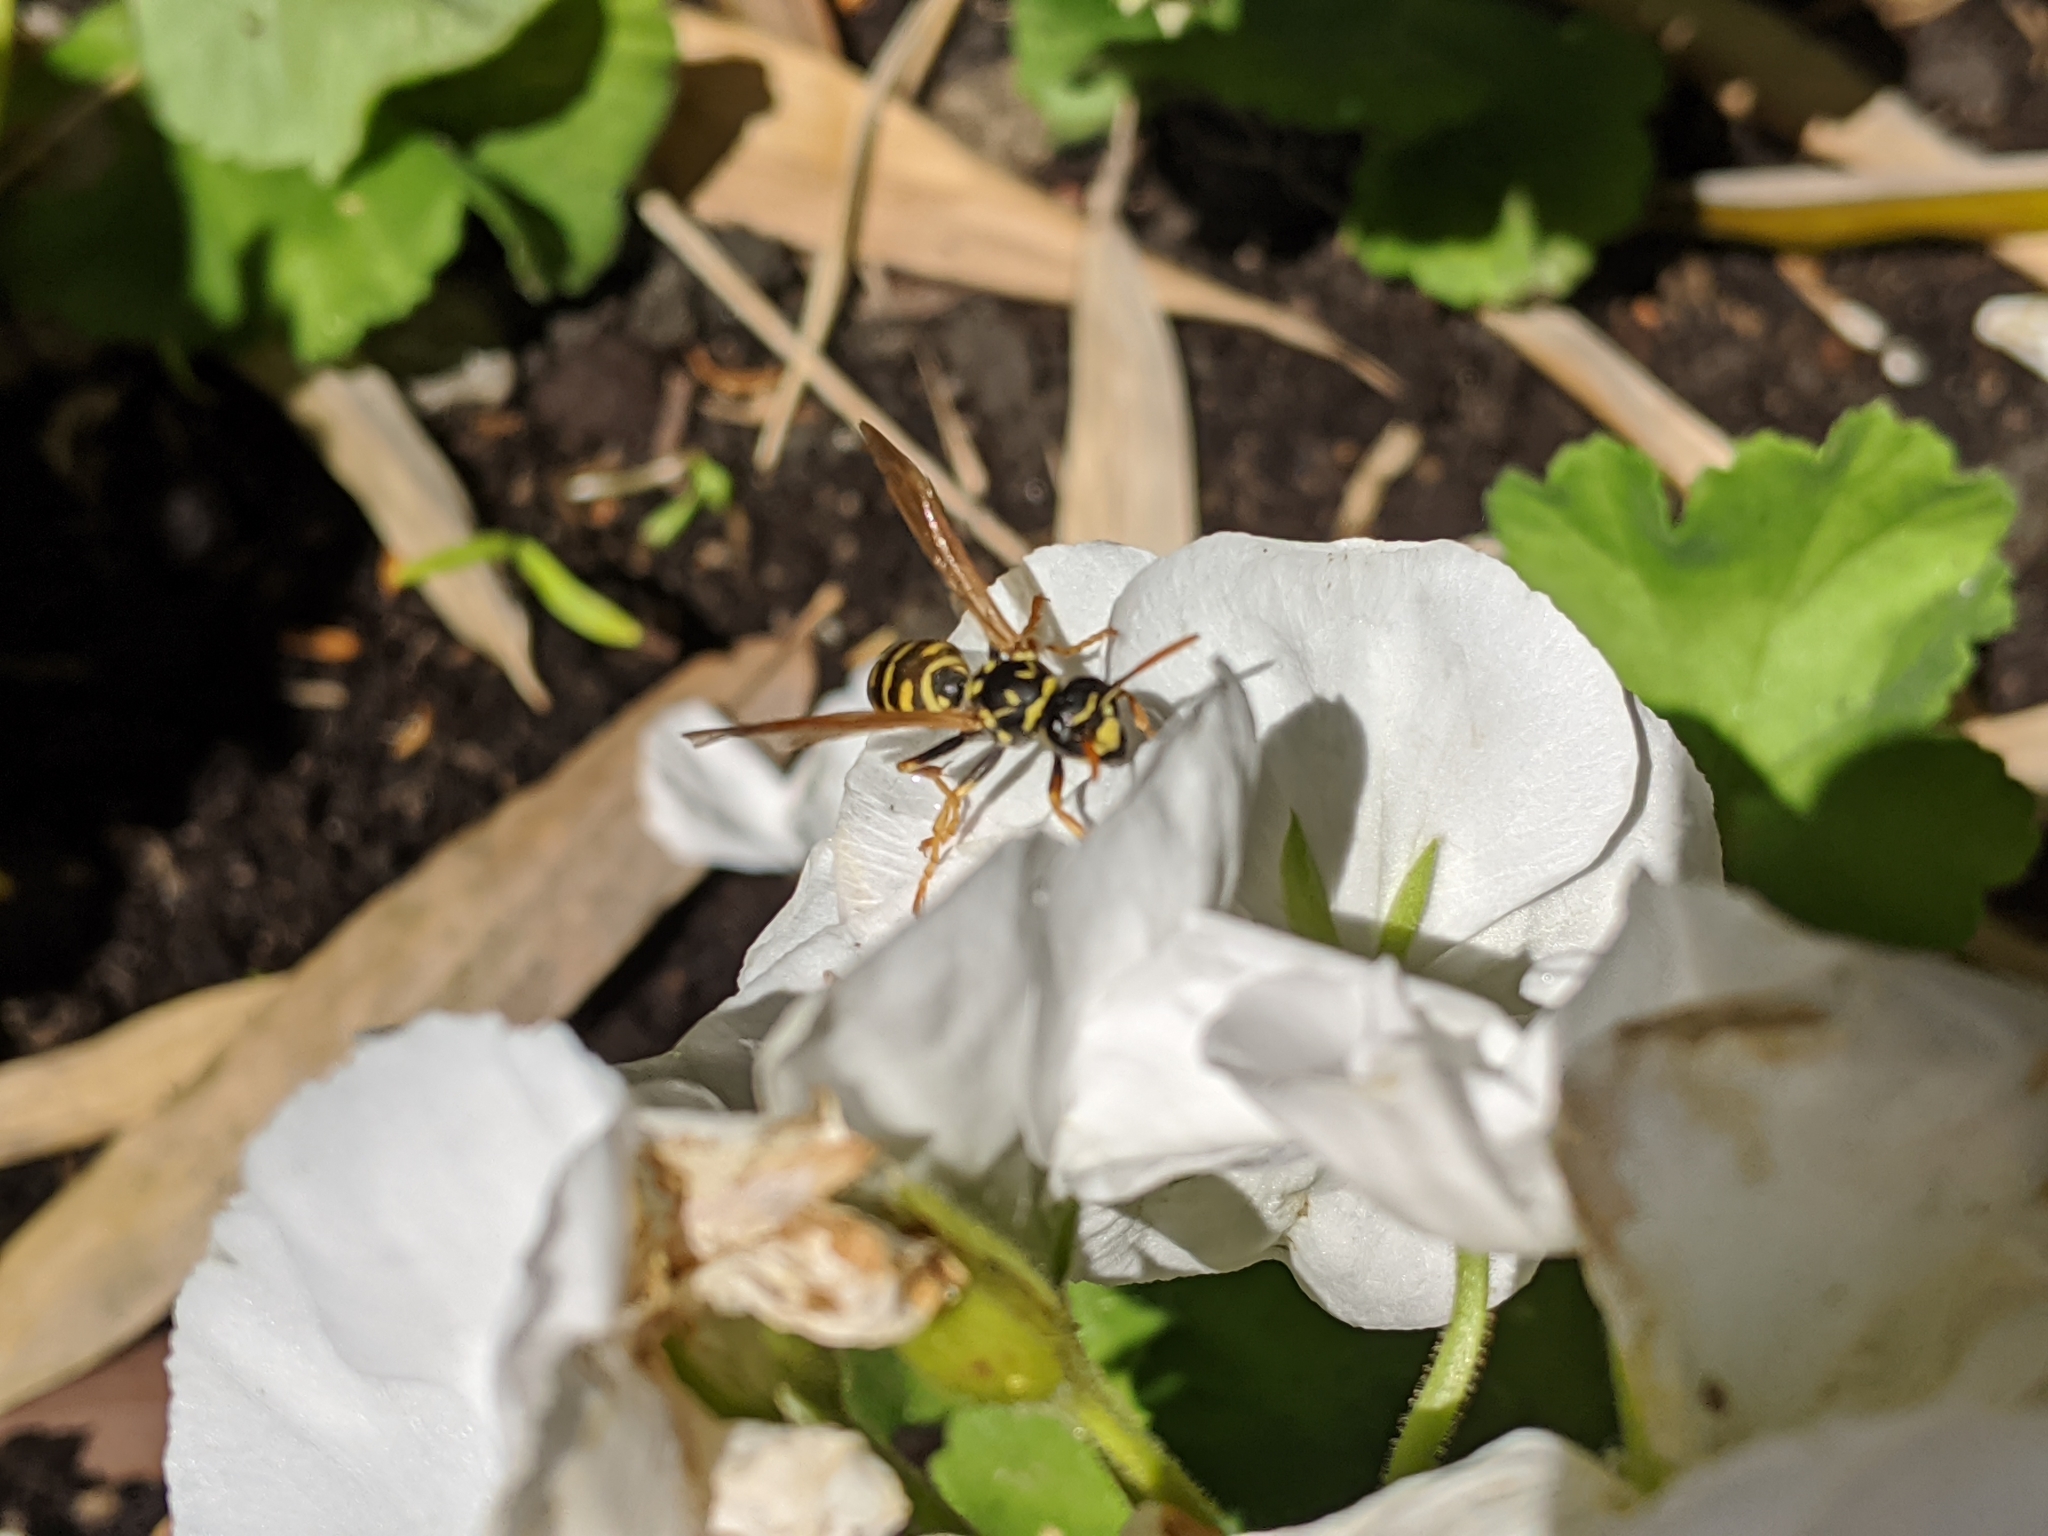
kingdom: Animalia
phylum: Arthropoda
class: Insecta
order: Hymenoptera
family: Eumenidae
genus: Polistes
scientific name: Polistes dominula
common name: Paper wasp
